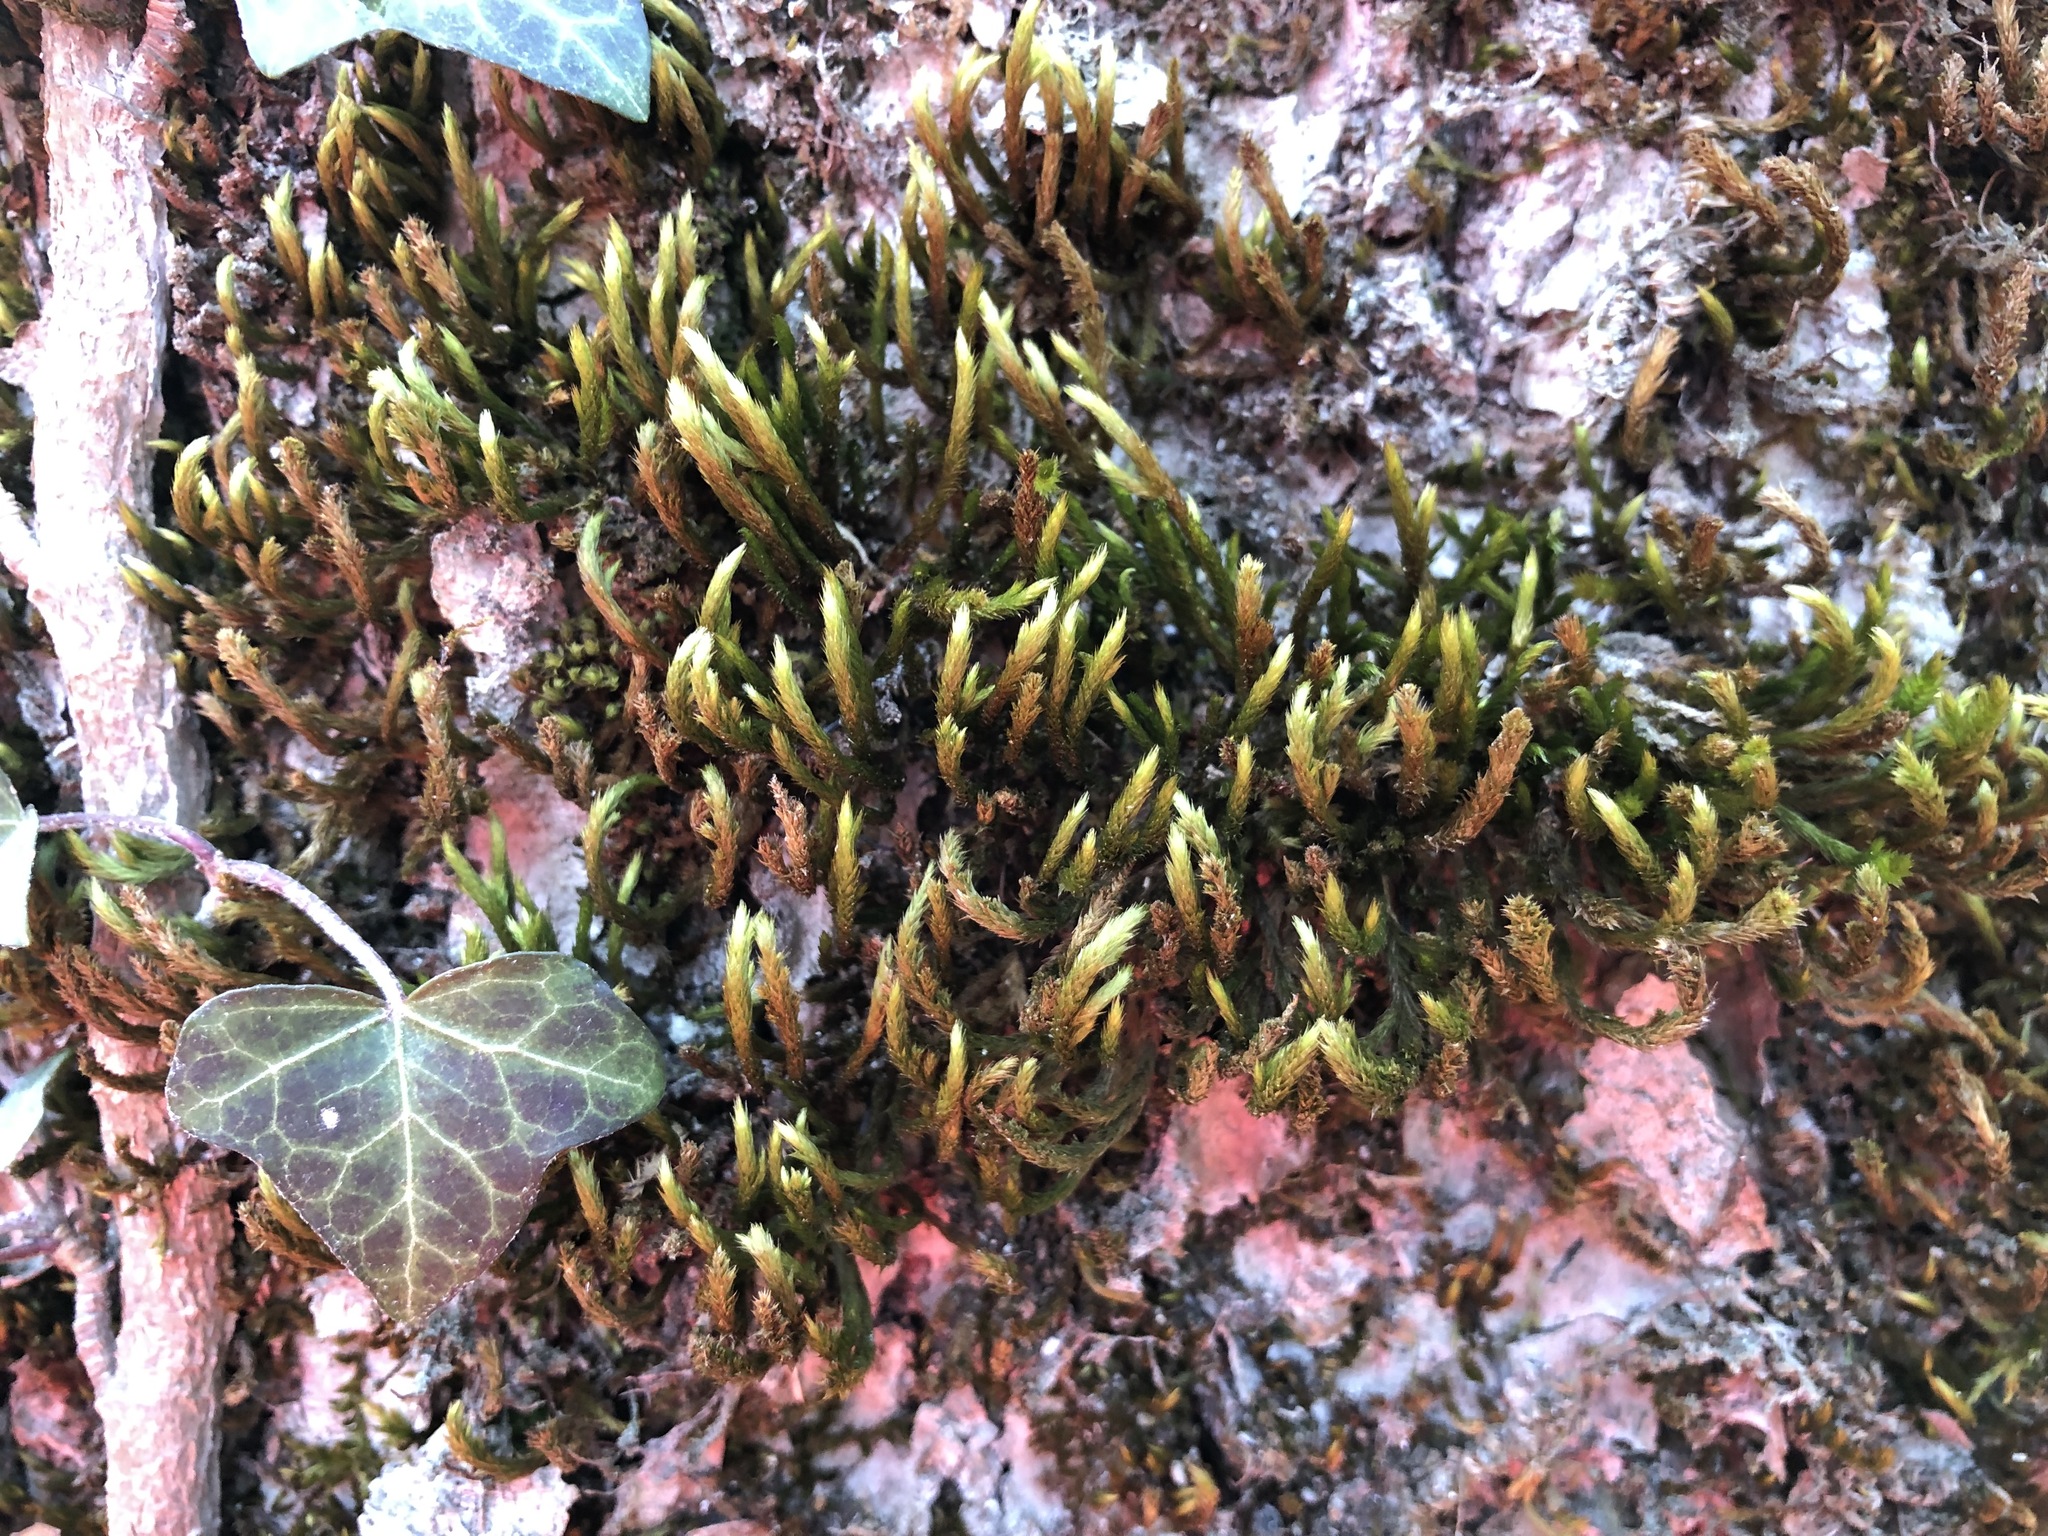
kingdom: Plantae
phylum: Bryophyta
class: Bryopsida
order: Hypnales
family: Leucodontaceae
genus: Leucodon
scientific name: Leucodon sciuroides
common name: Squirrel-tail moss
